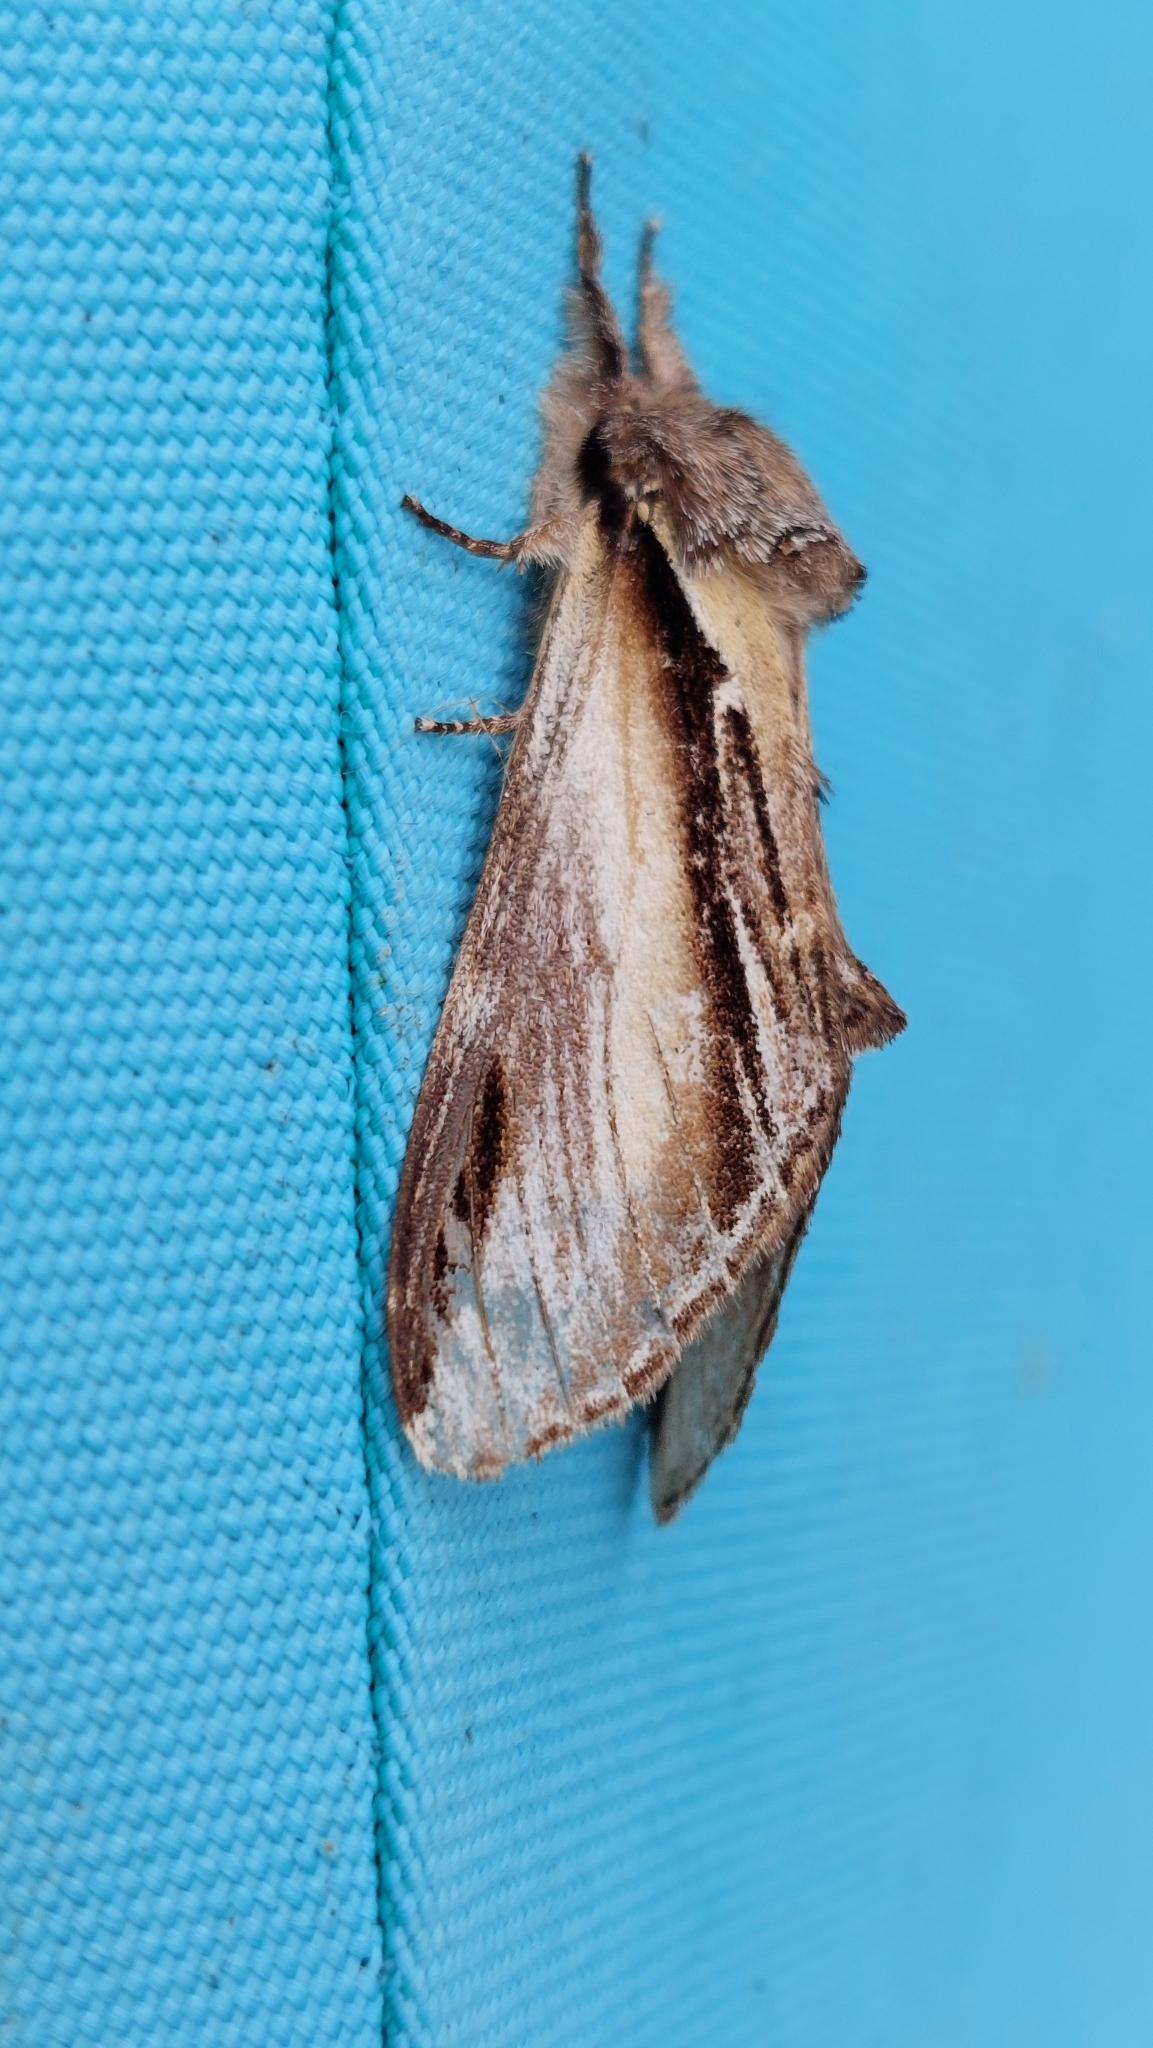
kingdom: Animalia
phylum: Arthropoda
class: Insecta
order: Lepidoptera
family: Notodontidae
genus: Pheosia
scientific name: Pheosia gnoma
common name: Lesser swallow prominent
